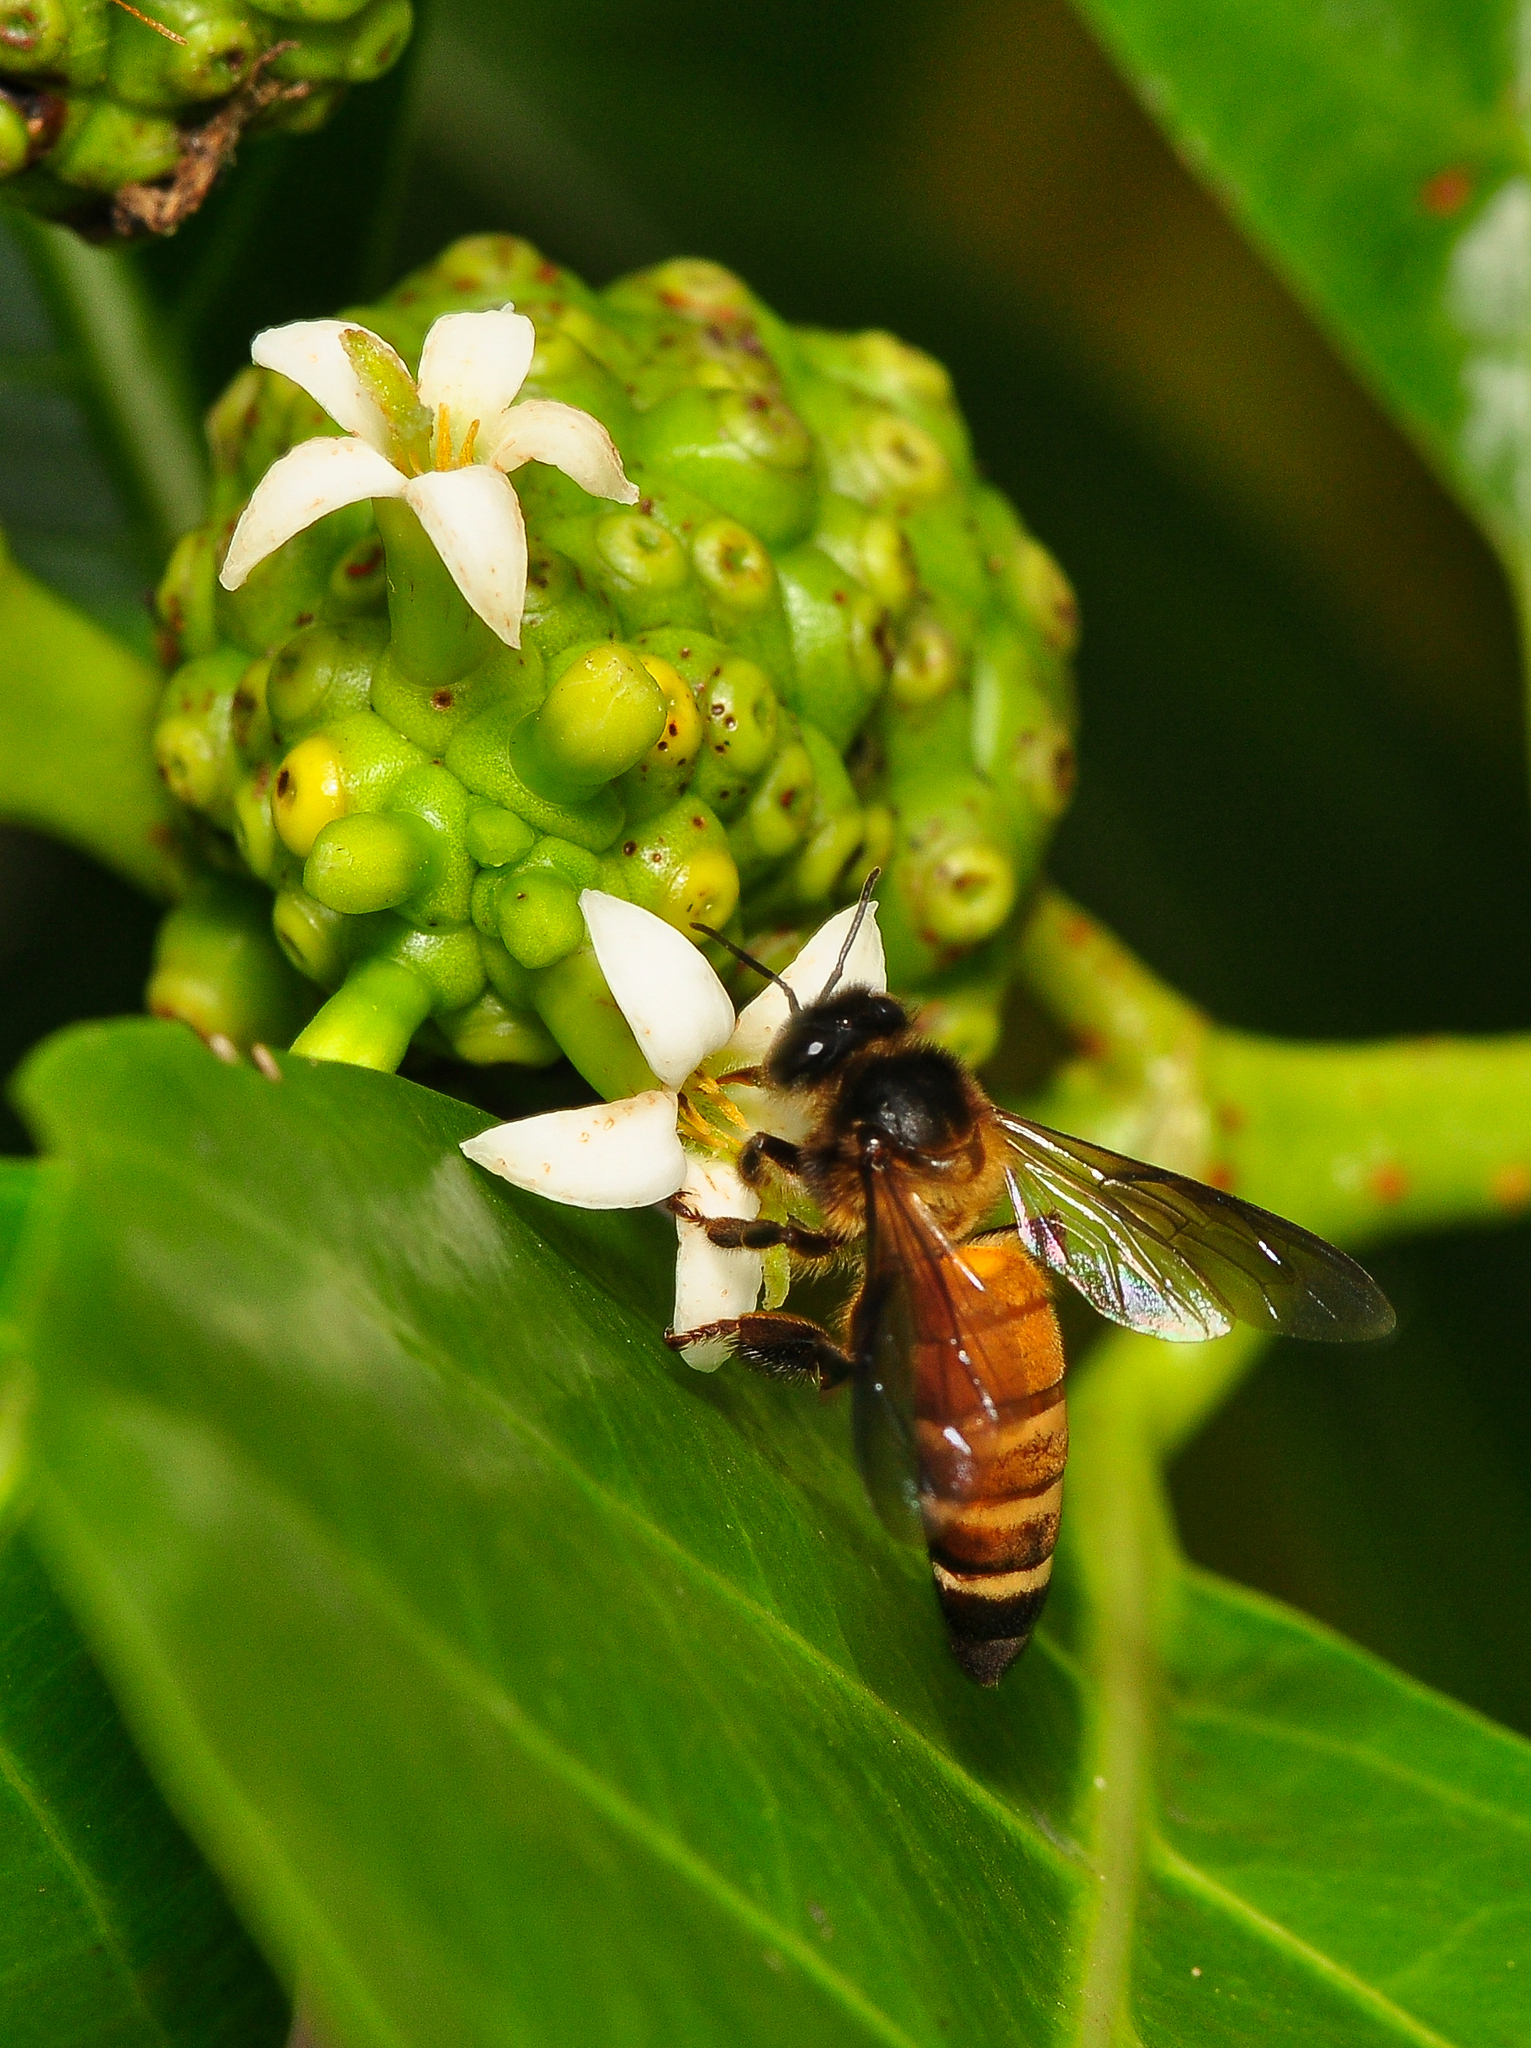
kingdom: Animalia
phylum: Arthropoda
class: Insecta
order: Hymenoptera
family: Apidae
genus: Apis
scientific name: Apis dorsata
